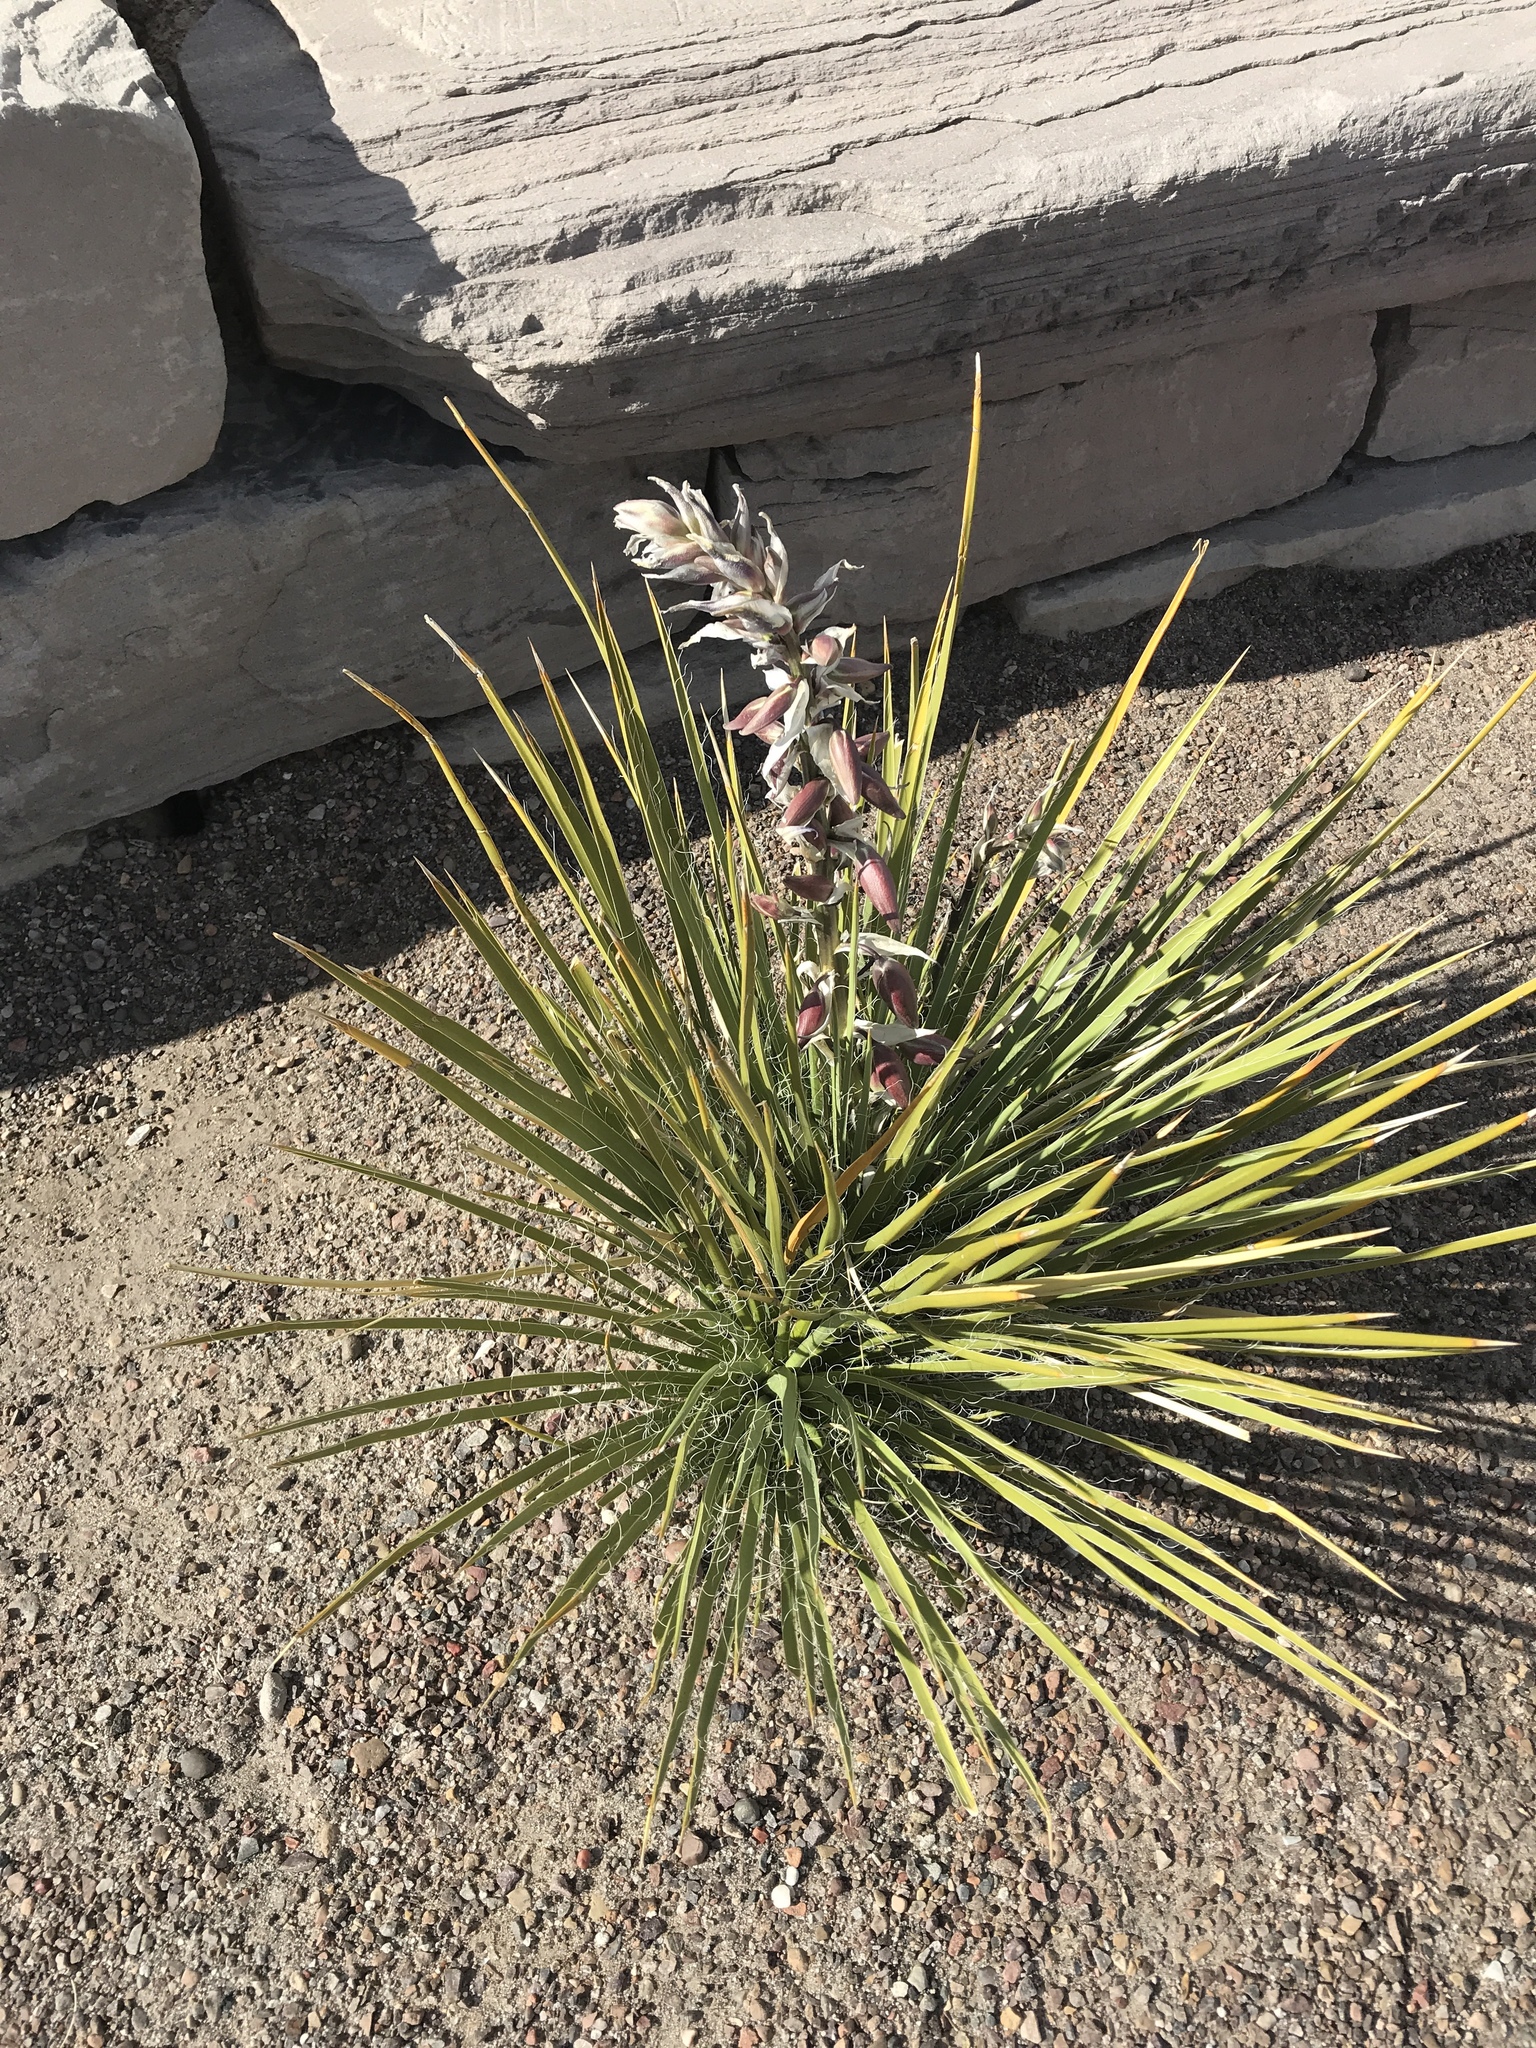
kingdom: Plantae
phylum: Tracheophyta
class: Liliopsida
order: Asparagales
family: Asparagaceae
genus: Yucca
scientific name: Yucca baileyi
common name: Alpine yucca
